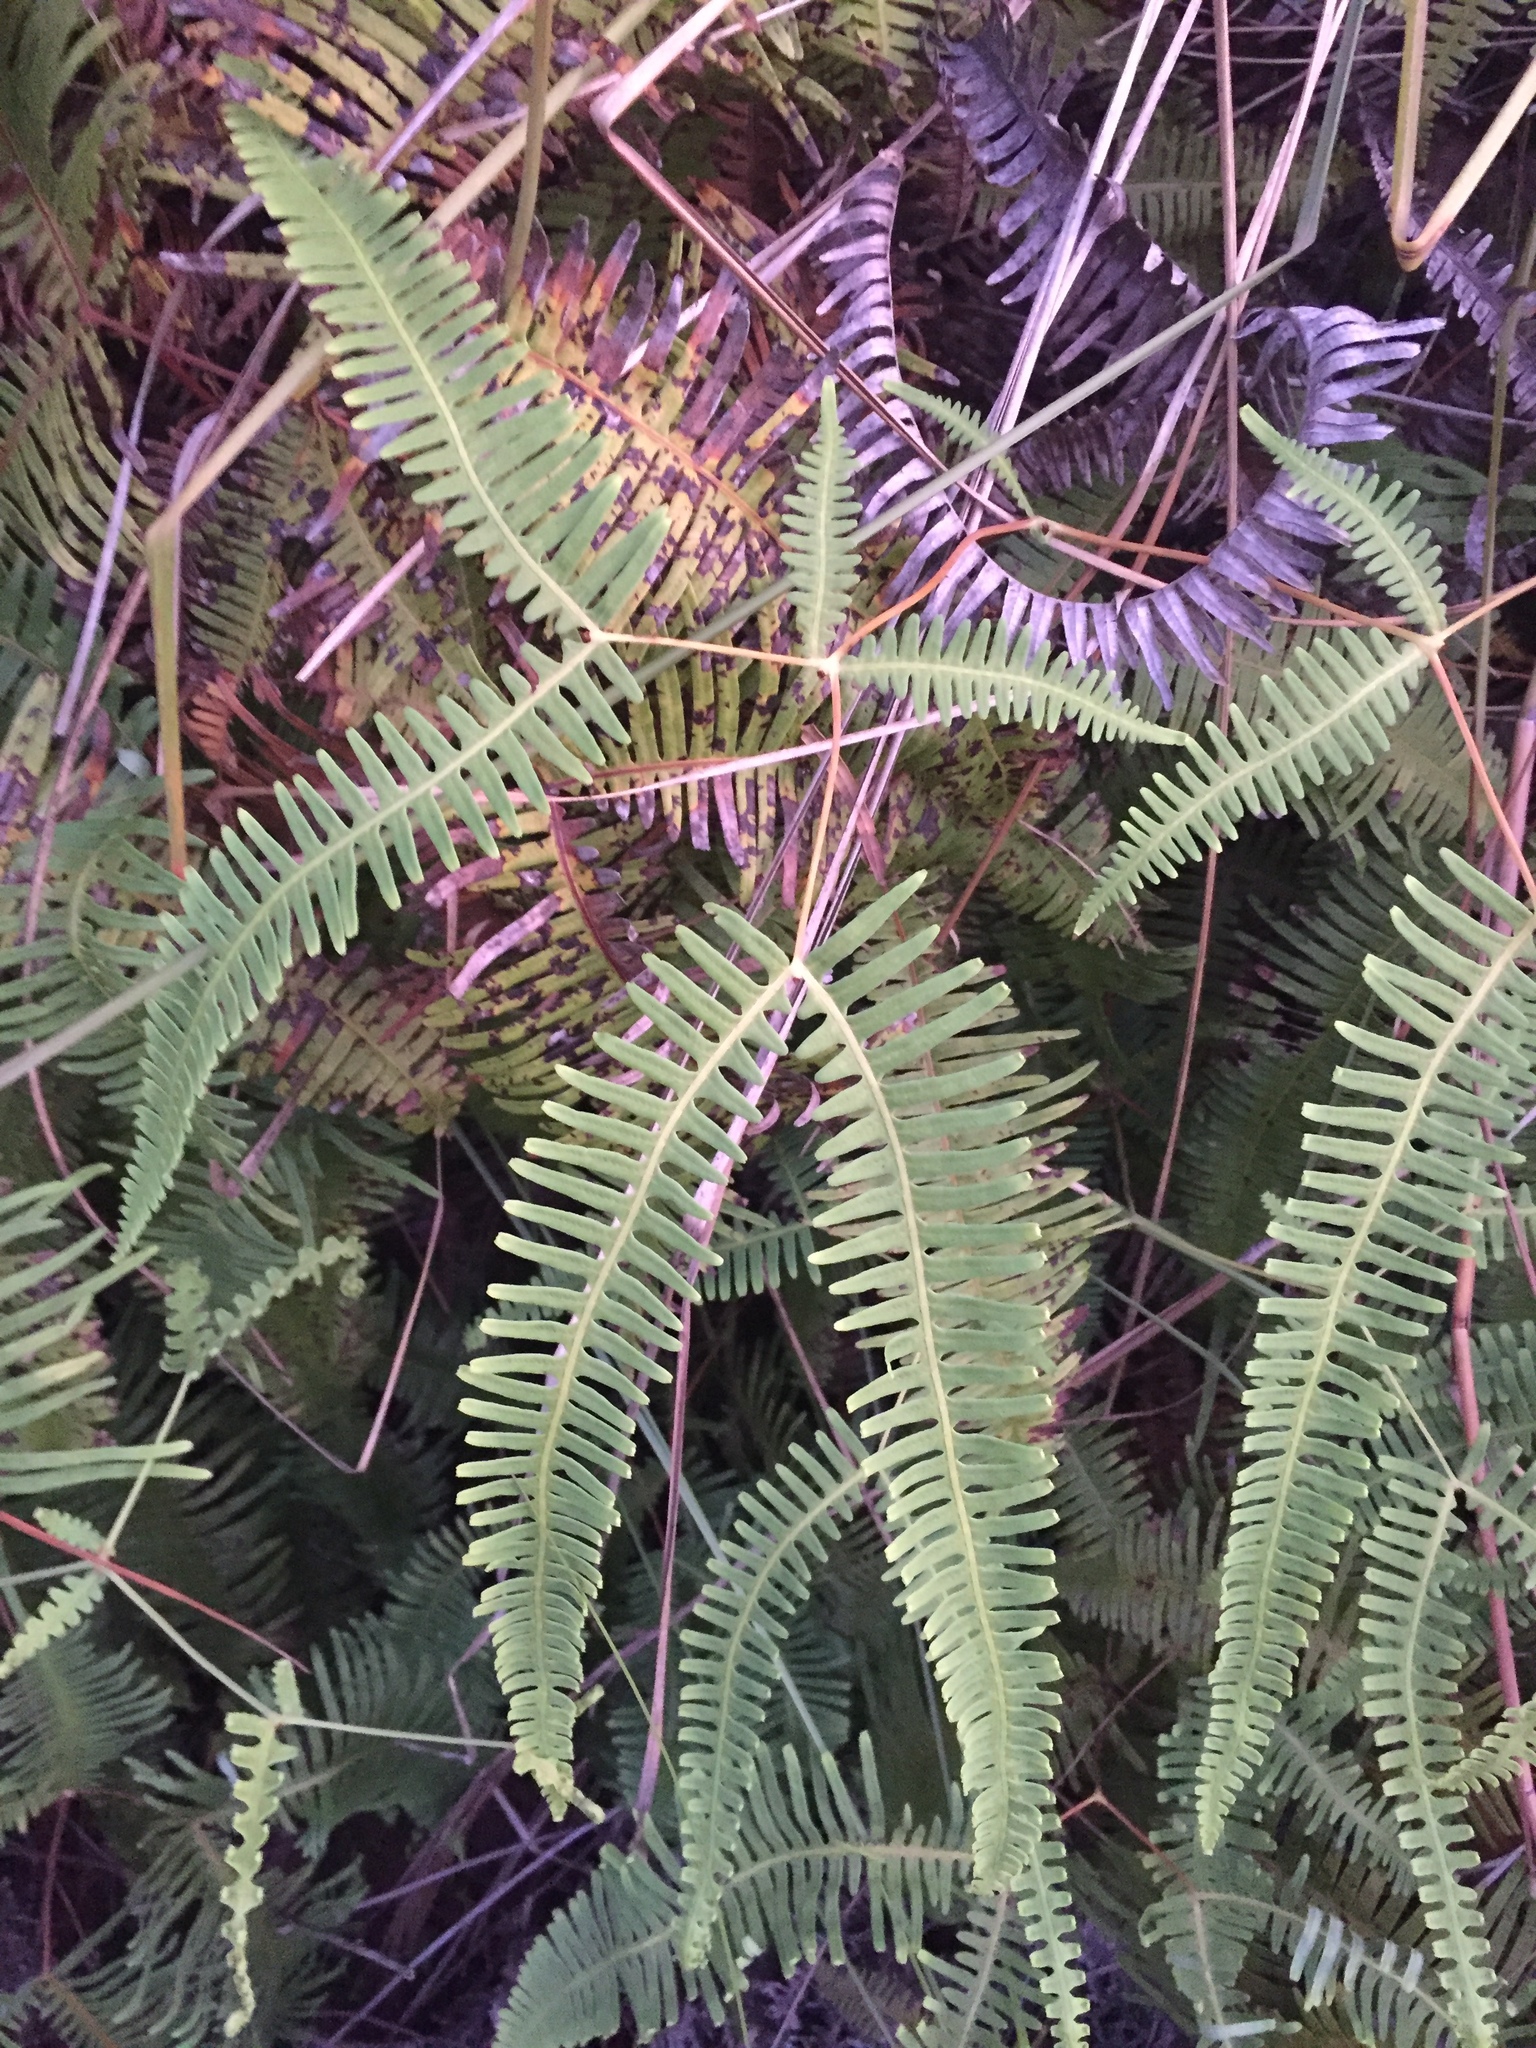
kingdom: Plantae
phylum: Tracheophyta
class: Polypodiopsida
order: Gleicheniales
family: Gleicheniaceae
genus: Dicranopteris
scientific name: Dicranopteris linearis
